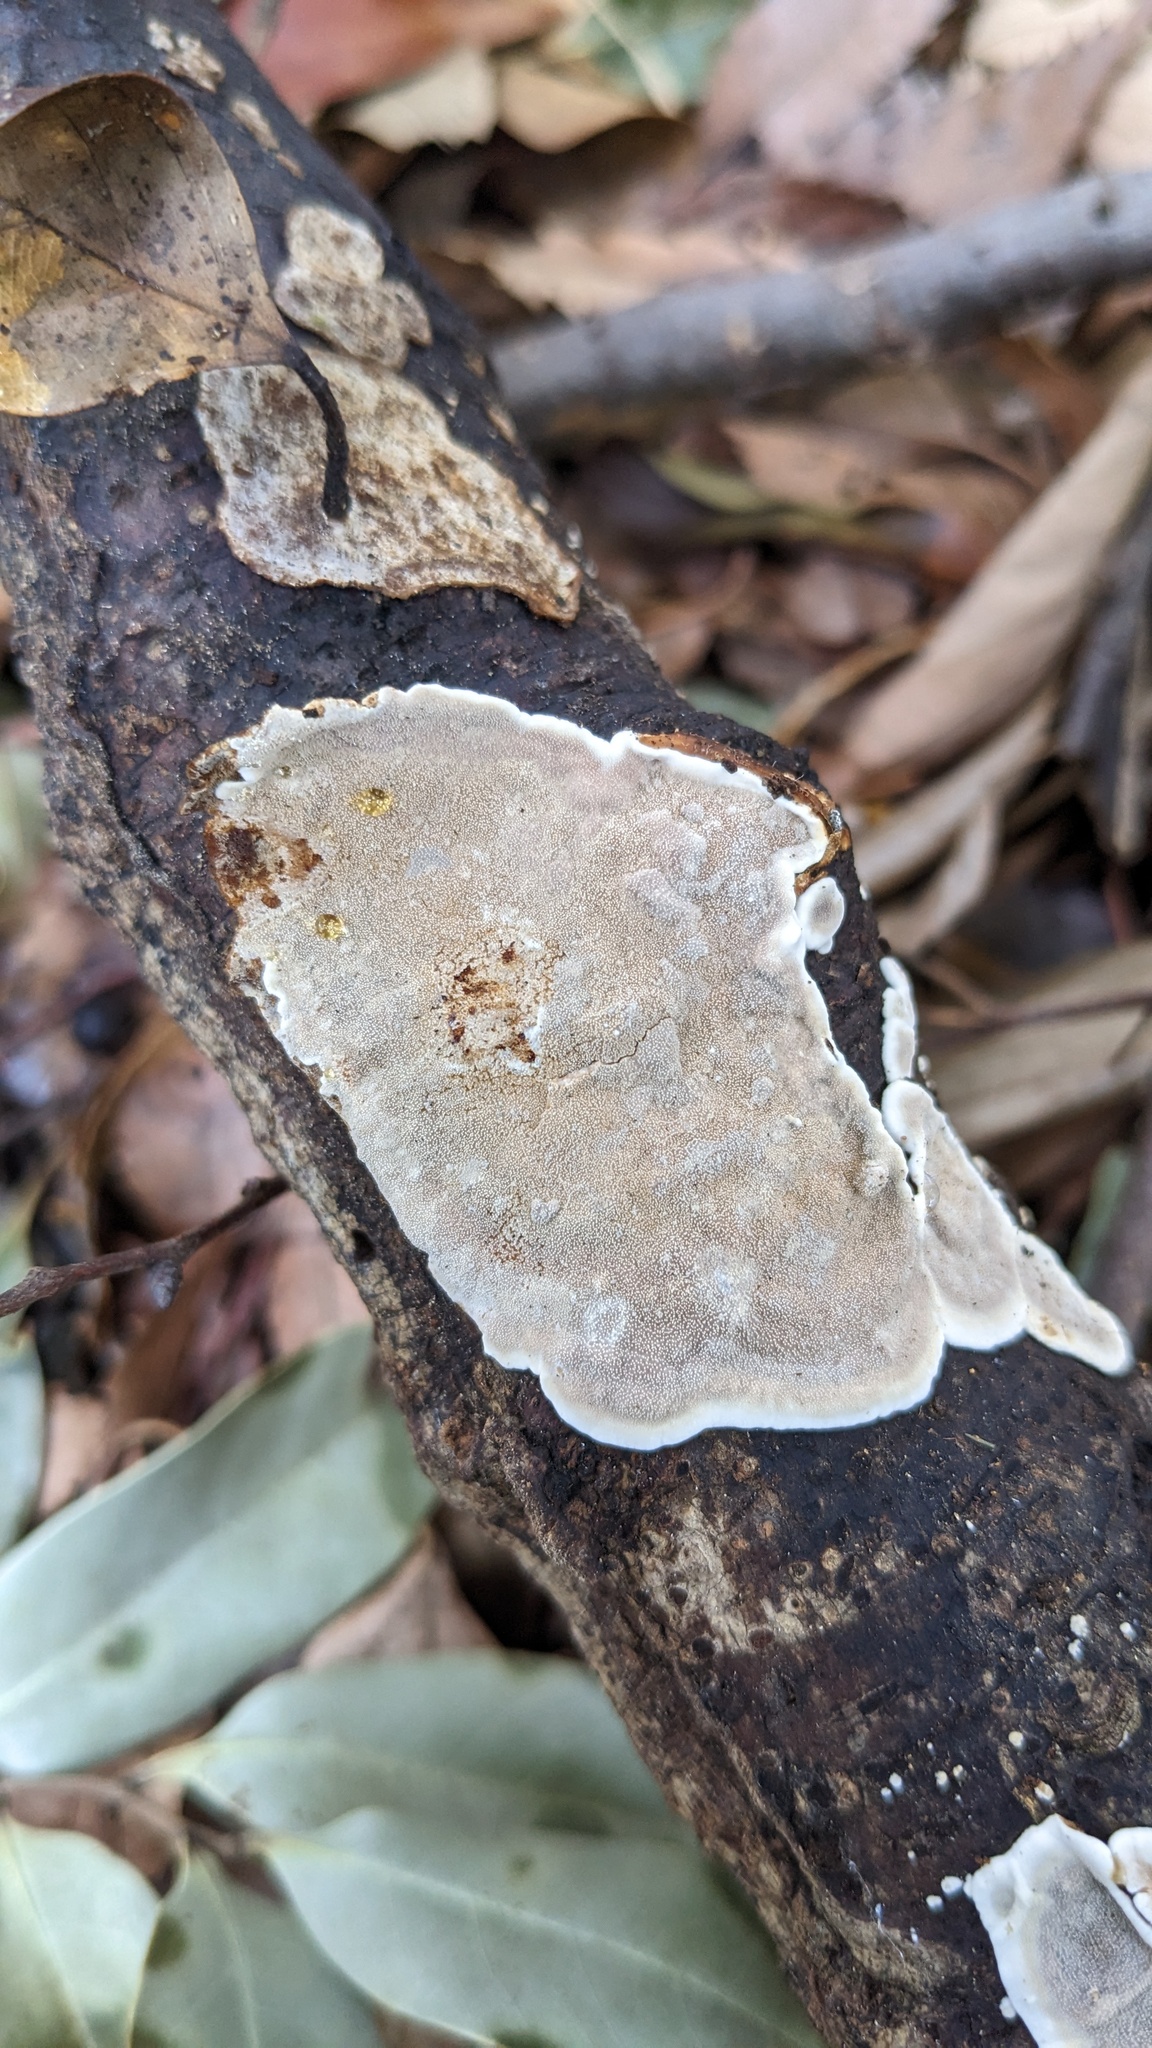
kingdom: Fungi
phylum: Basidiomycota
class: Agaricomycetes
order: Auriculariales
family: Auriculariaceae
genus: Heterochaete
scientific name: Heterochaete delicata
